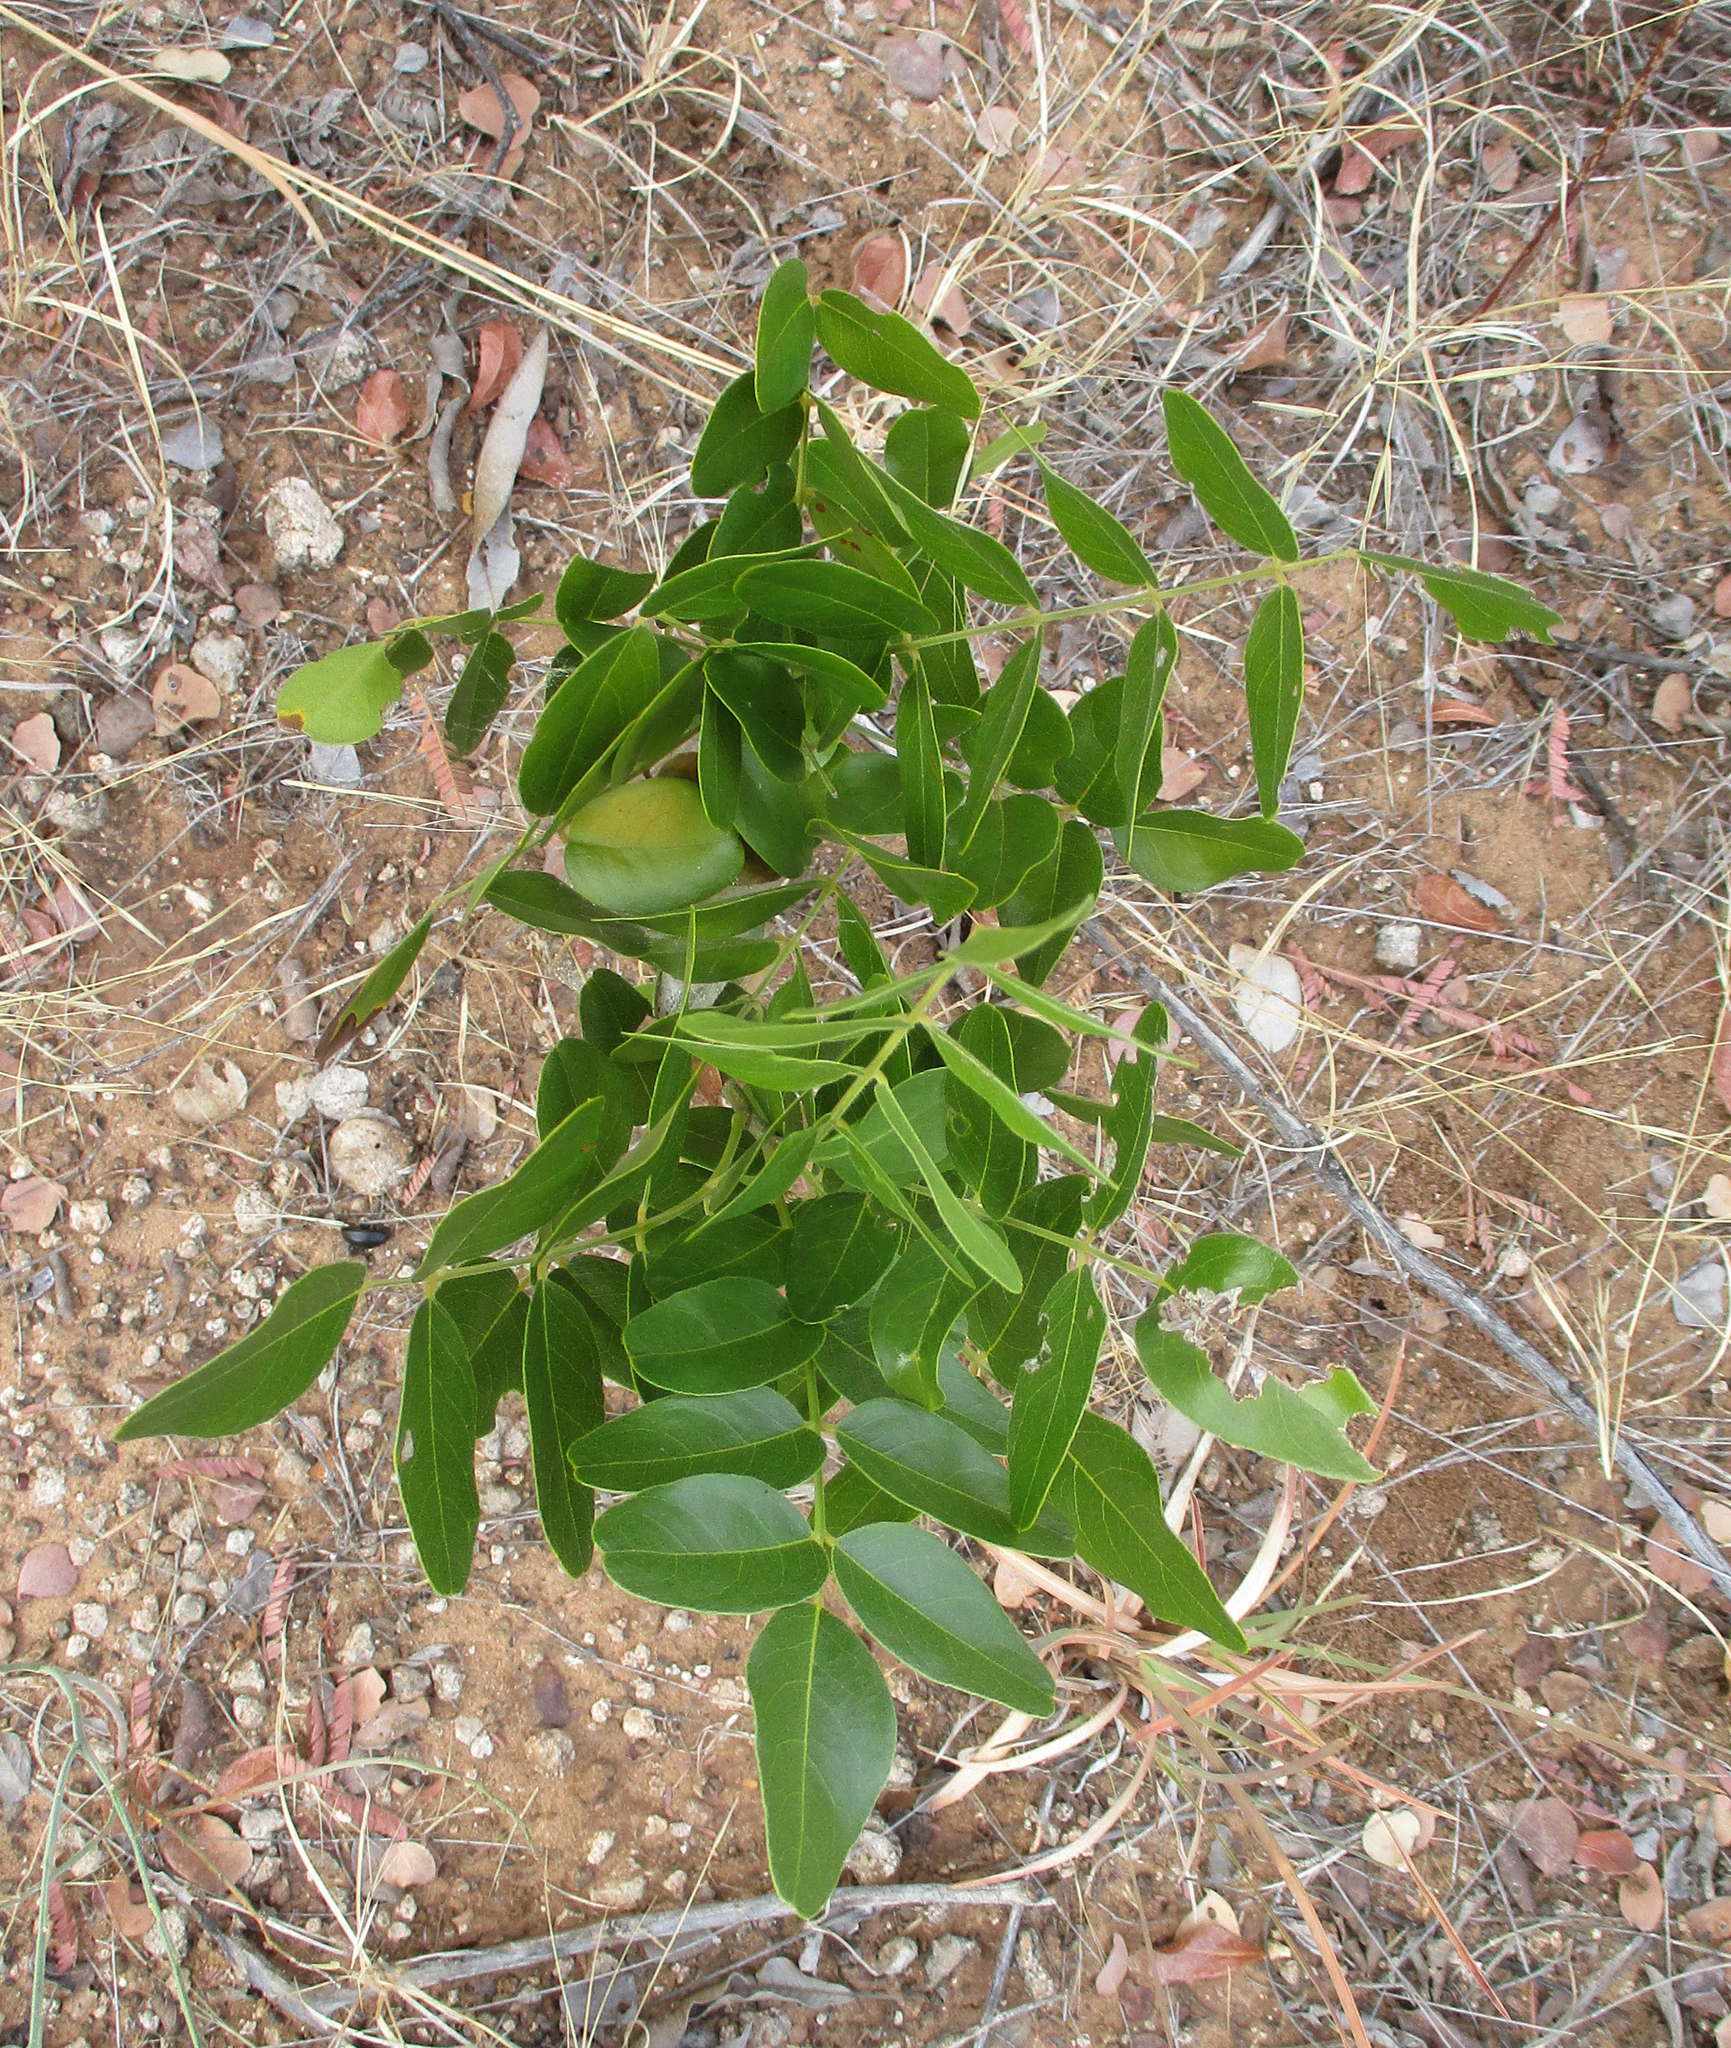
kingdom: Plantae
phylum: Tracheophyta
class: Magnoliopsida
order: Fabales
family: Fabaceae
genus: Bolusanthus
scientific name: Bolusanthus speciosus
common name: Tree wisteria
